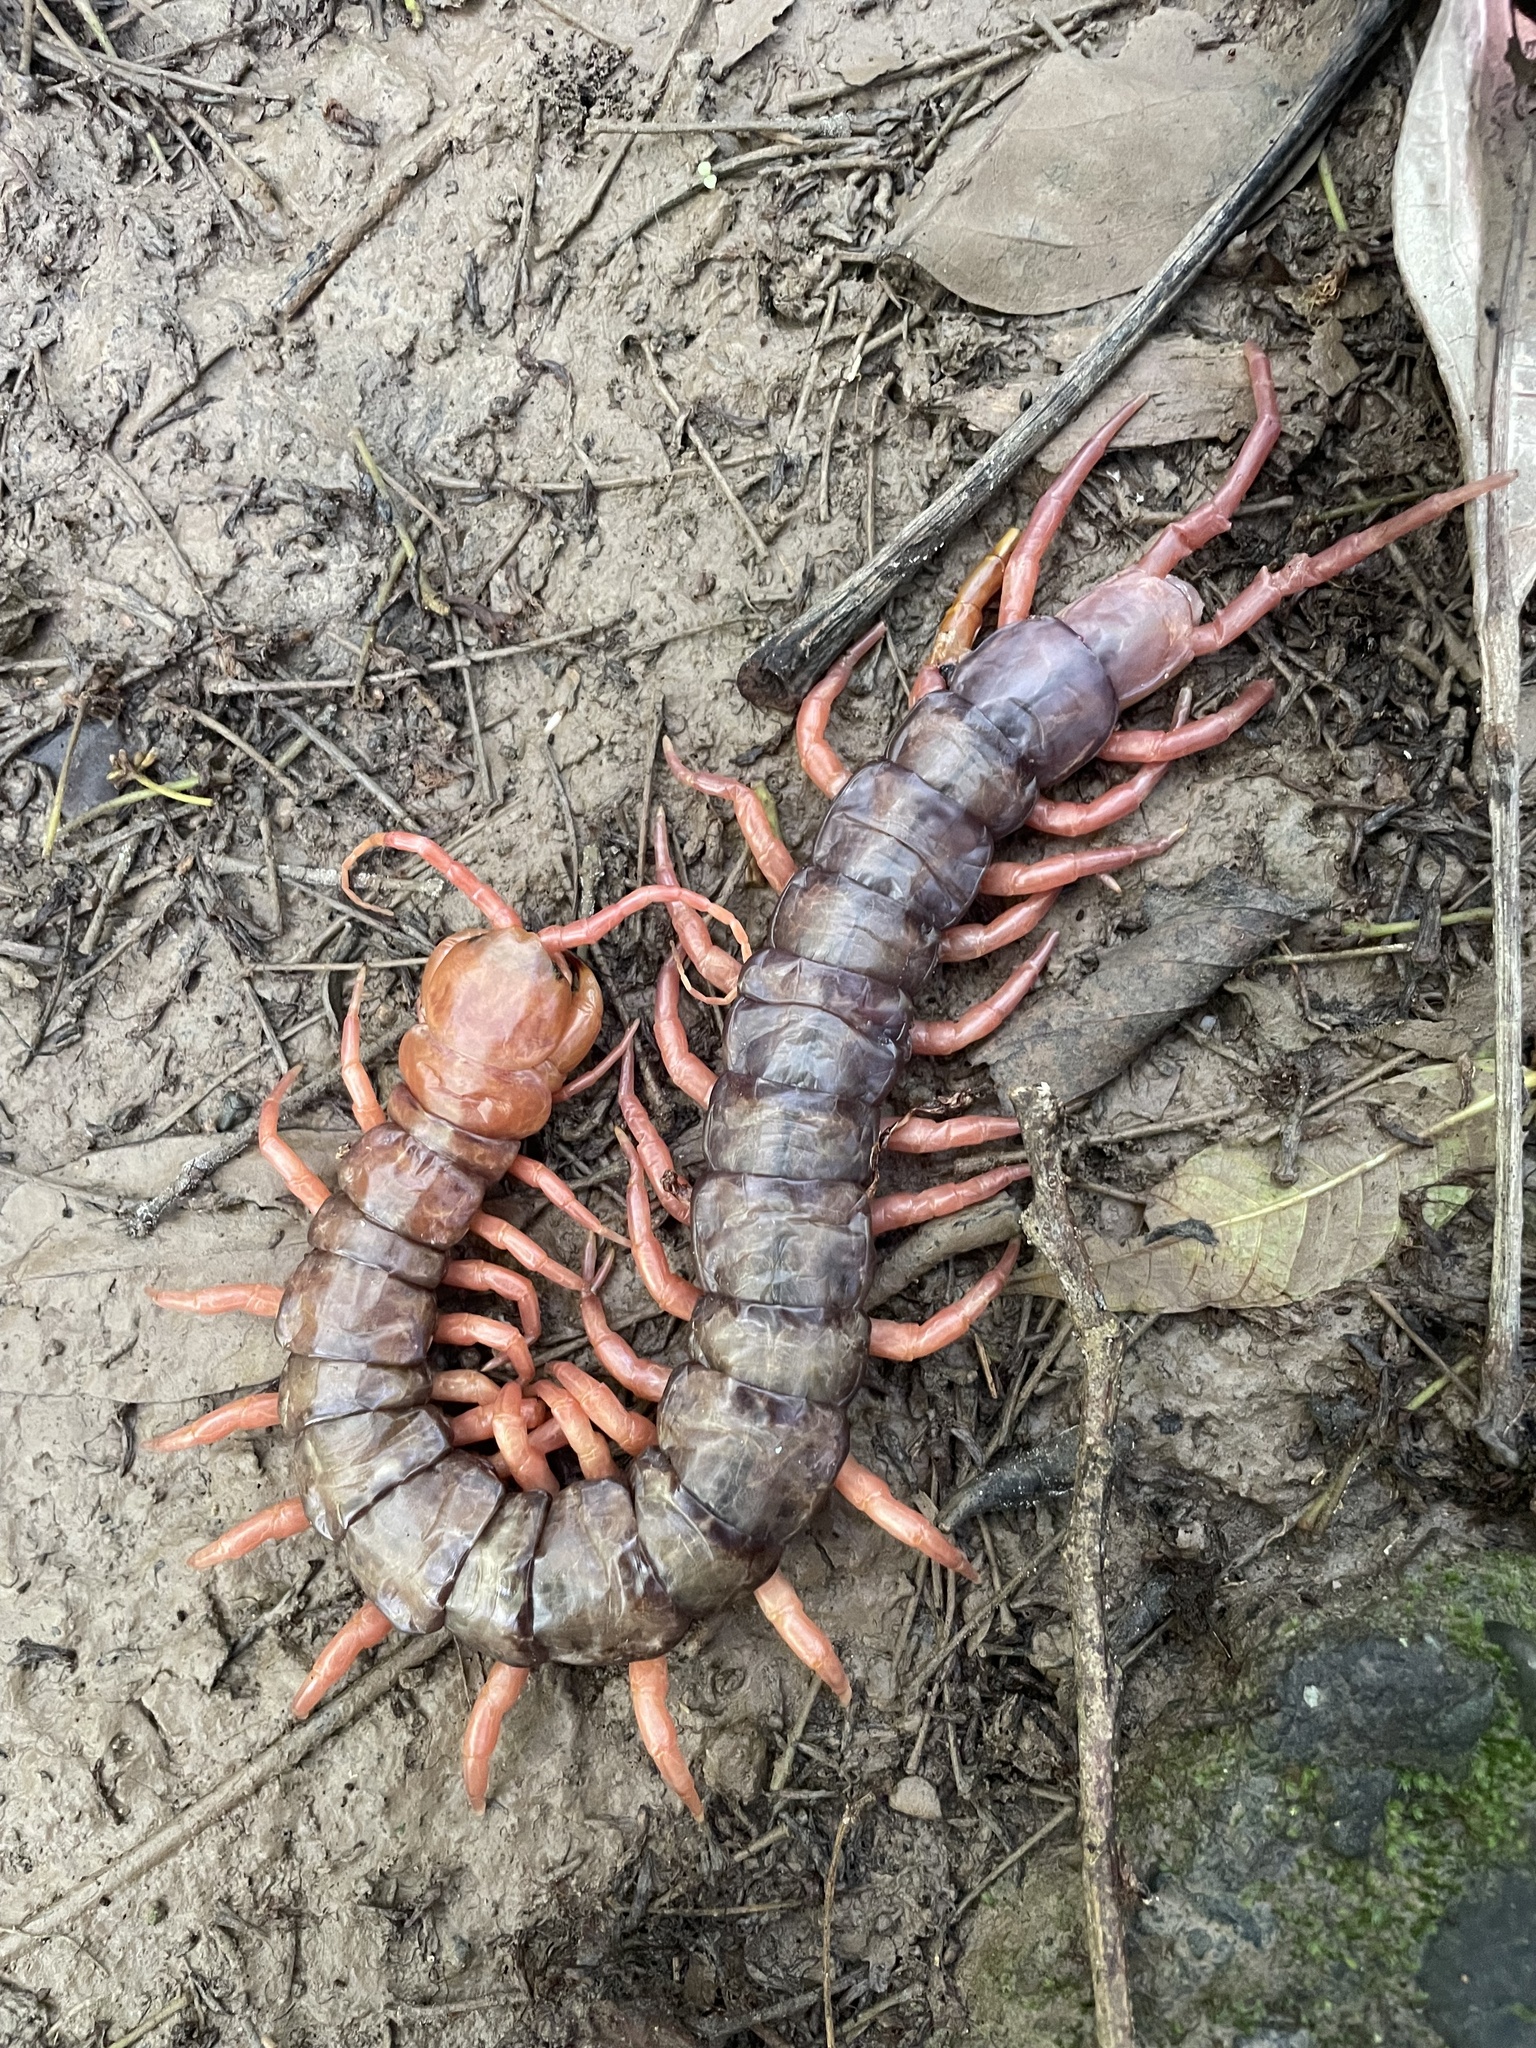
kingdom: Animalia
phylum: Arthropoda
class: Chilopoda
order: Scolopendromorpha
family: Scolopendridae
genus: Scolopendra
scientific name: Scolopendra dehaani
